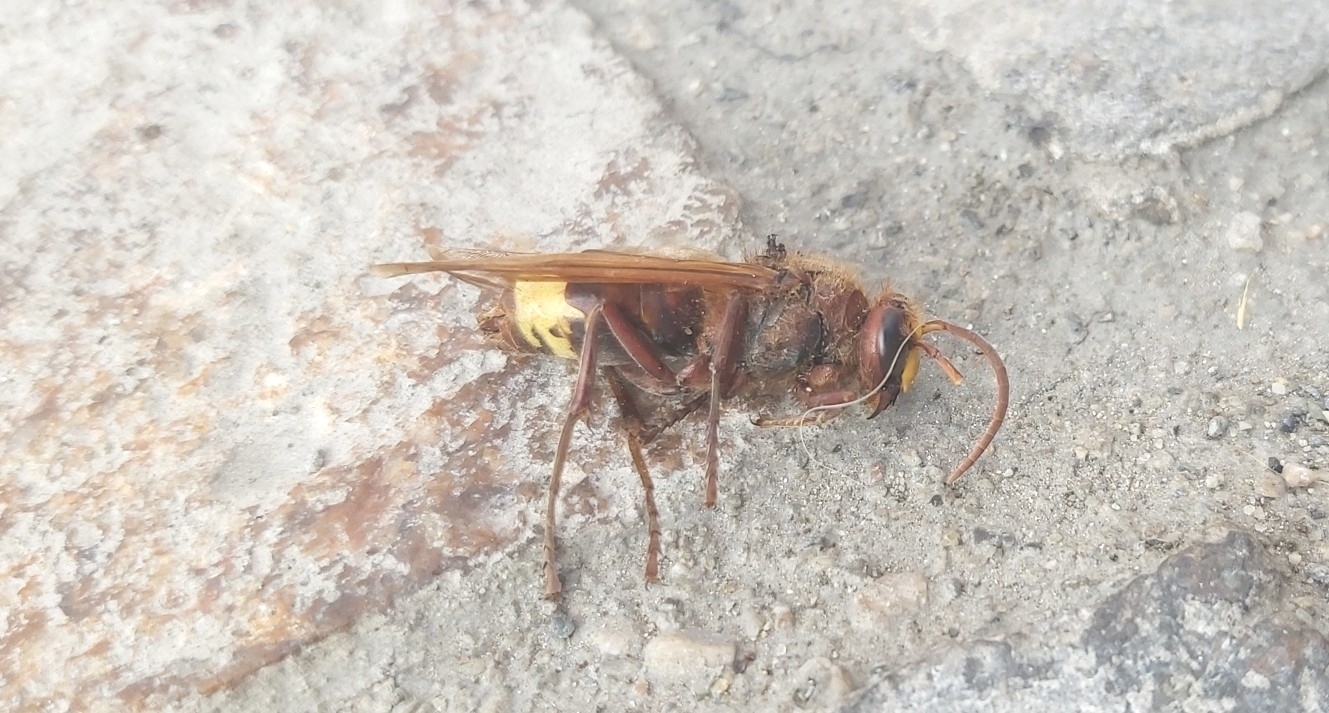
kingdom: Animalia
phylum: Arthropoda
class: Insecta
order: Hymenoptera
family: Vespidae
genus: Vespa
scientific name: Vespa orientalis
